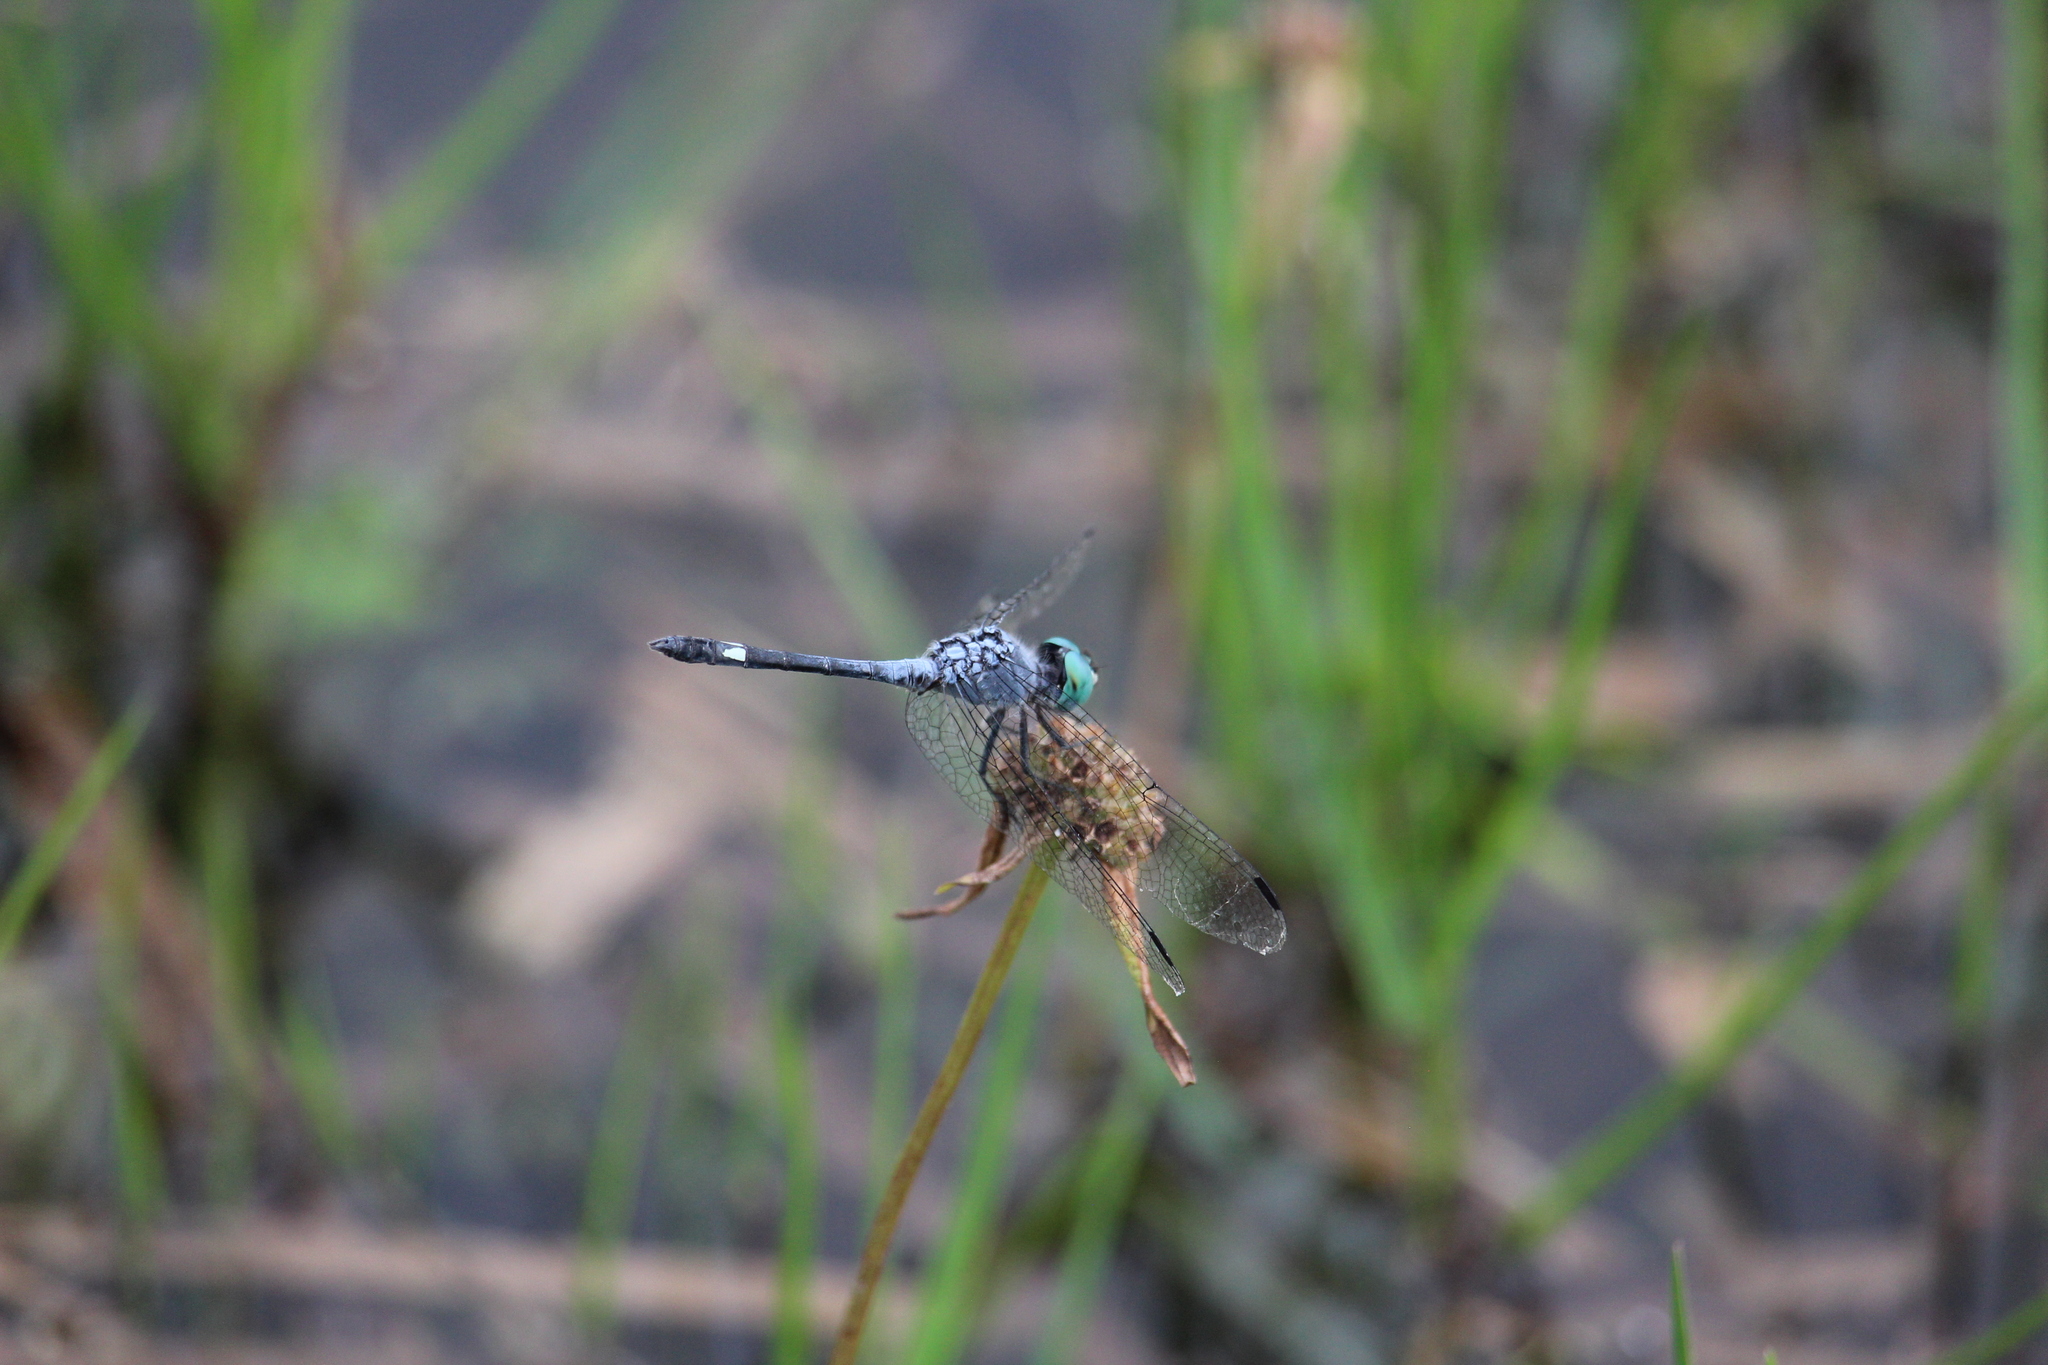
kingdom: Animalia
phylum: Arthropoda
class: Insecta
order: Odonata
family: Libellulidae
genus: Micrathyria
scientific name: Micrathyria aequalis
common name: Spot-tailed dasher
